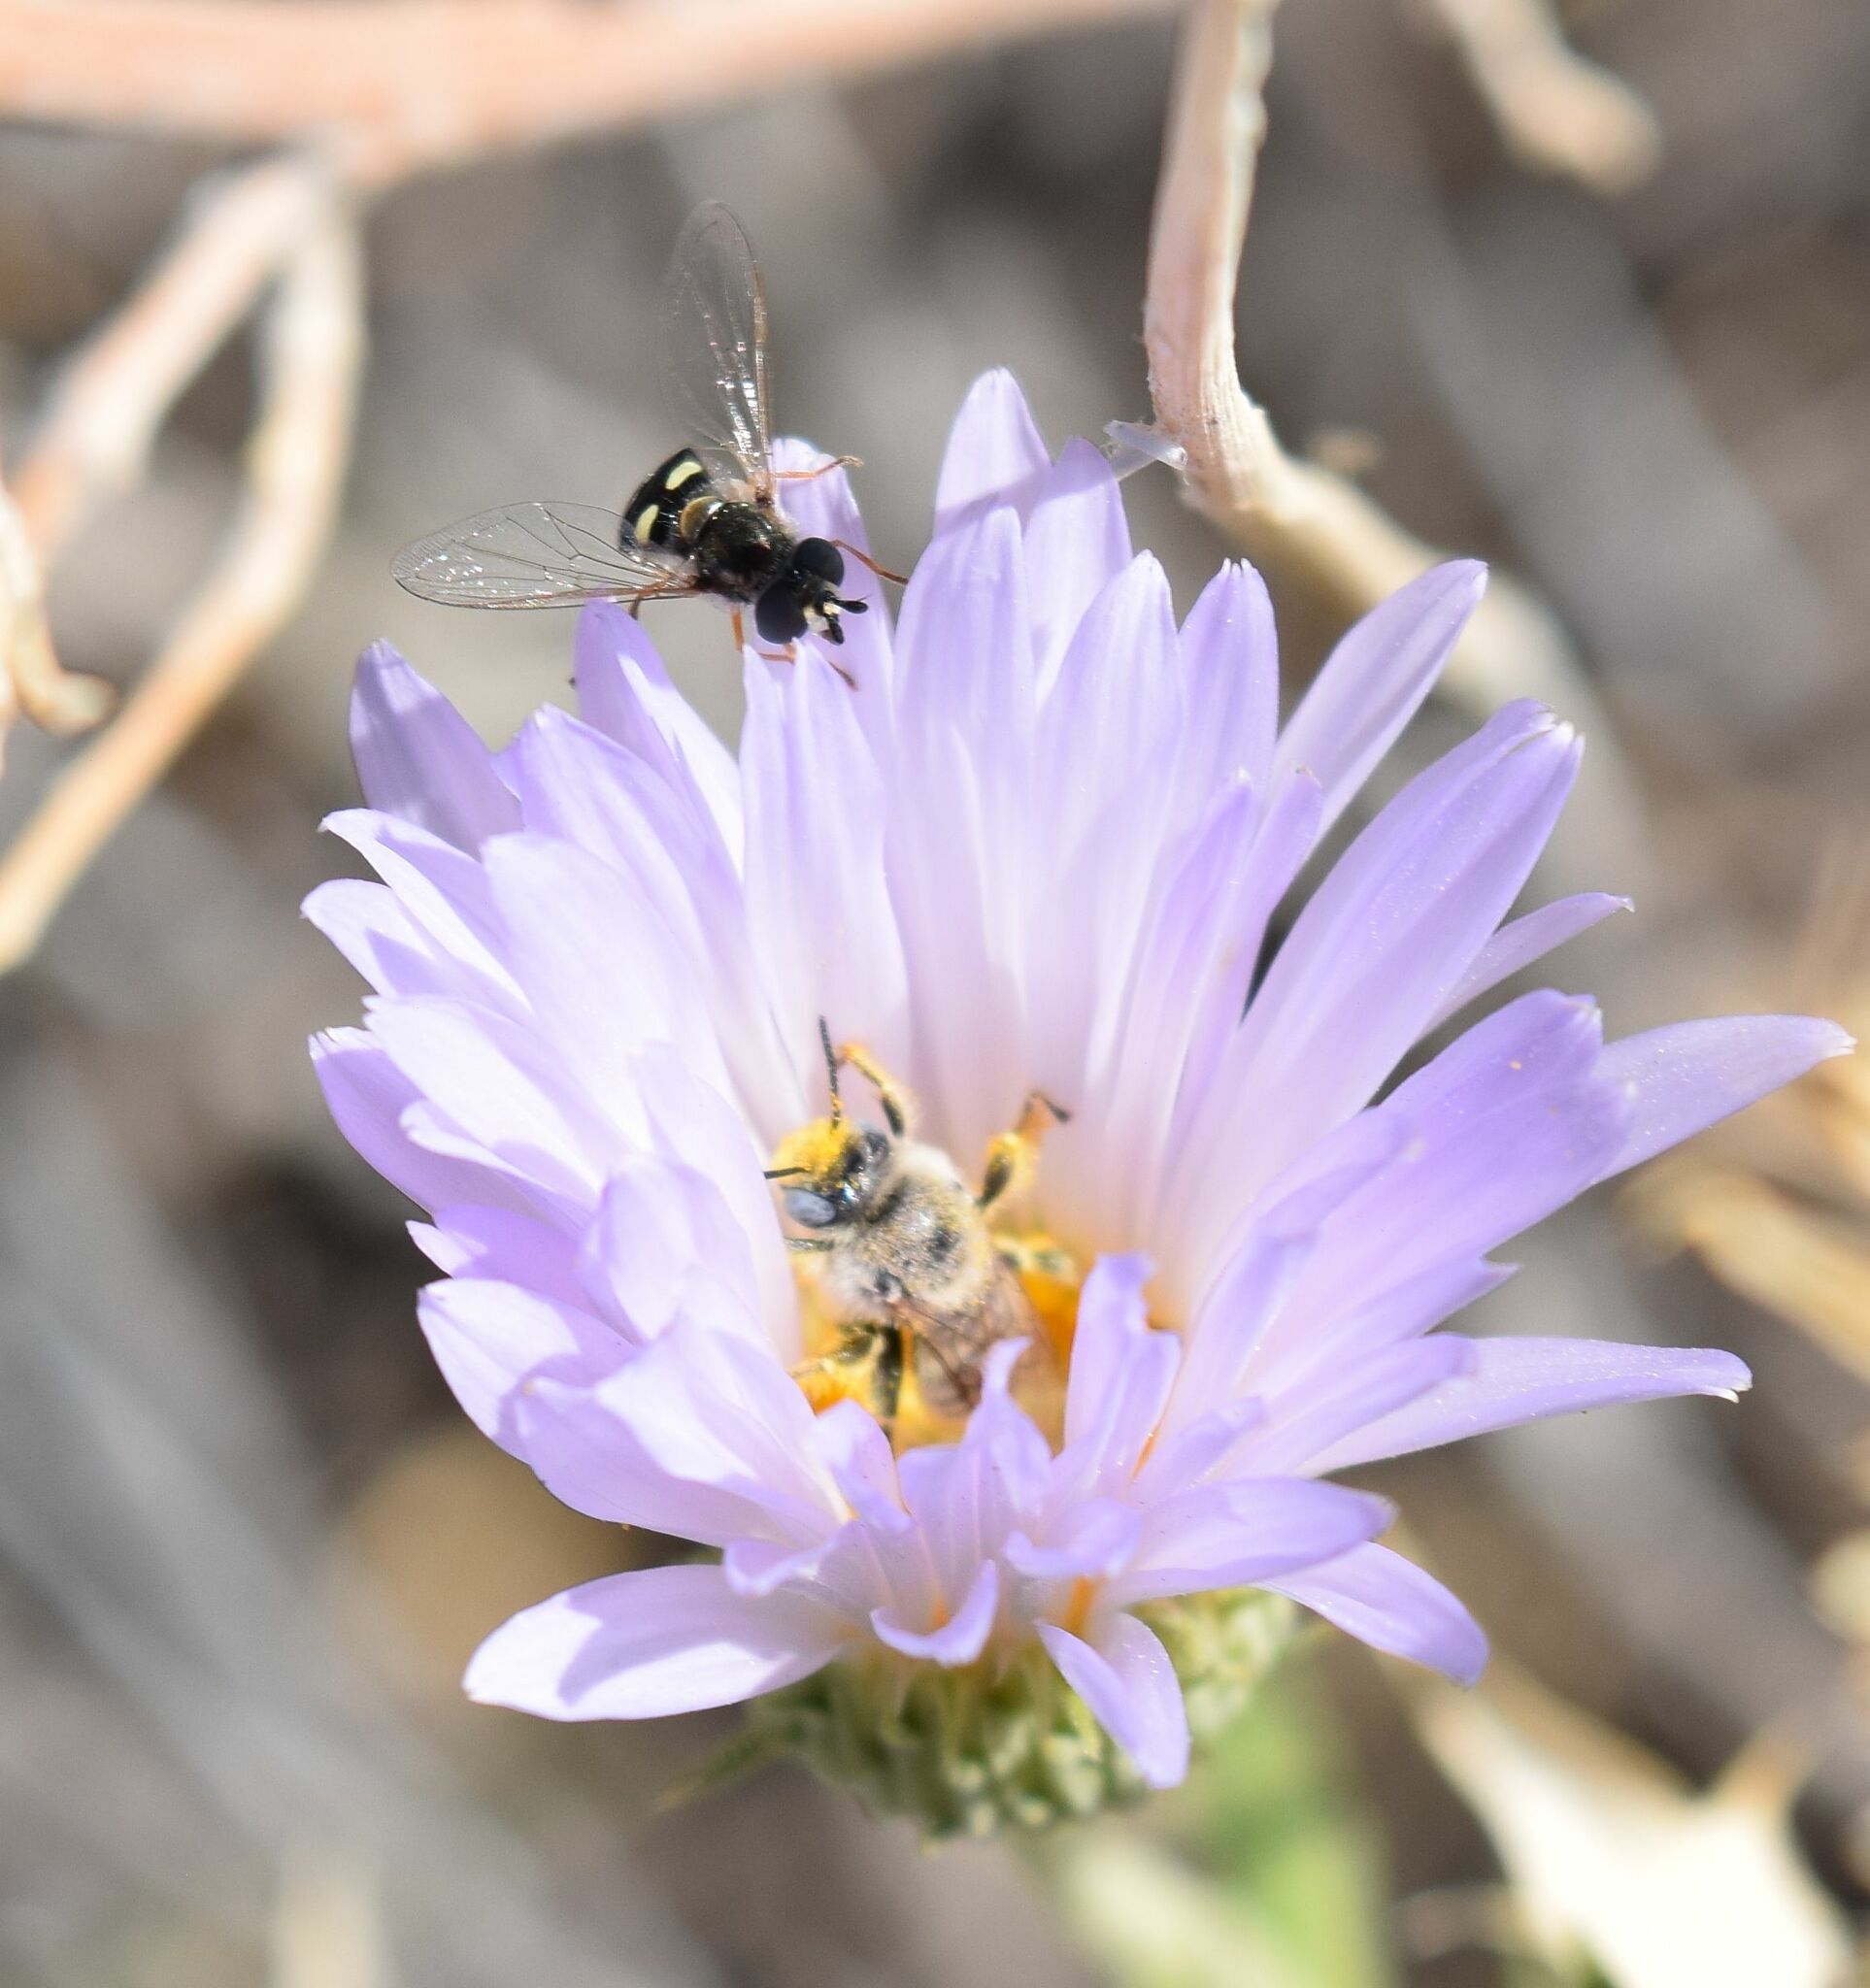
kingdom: Animalia
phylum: Arthropoda
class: Insecta
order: Diptera
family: Syrphidae
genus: Eupeodes
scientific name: Eupeodes volucris
